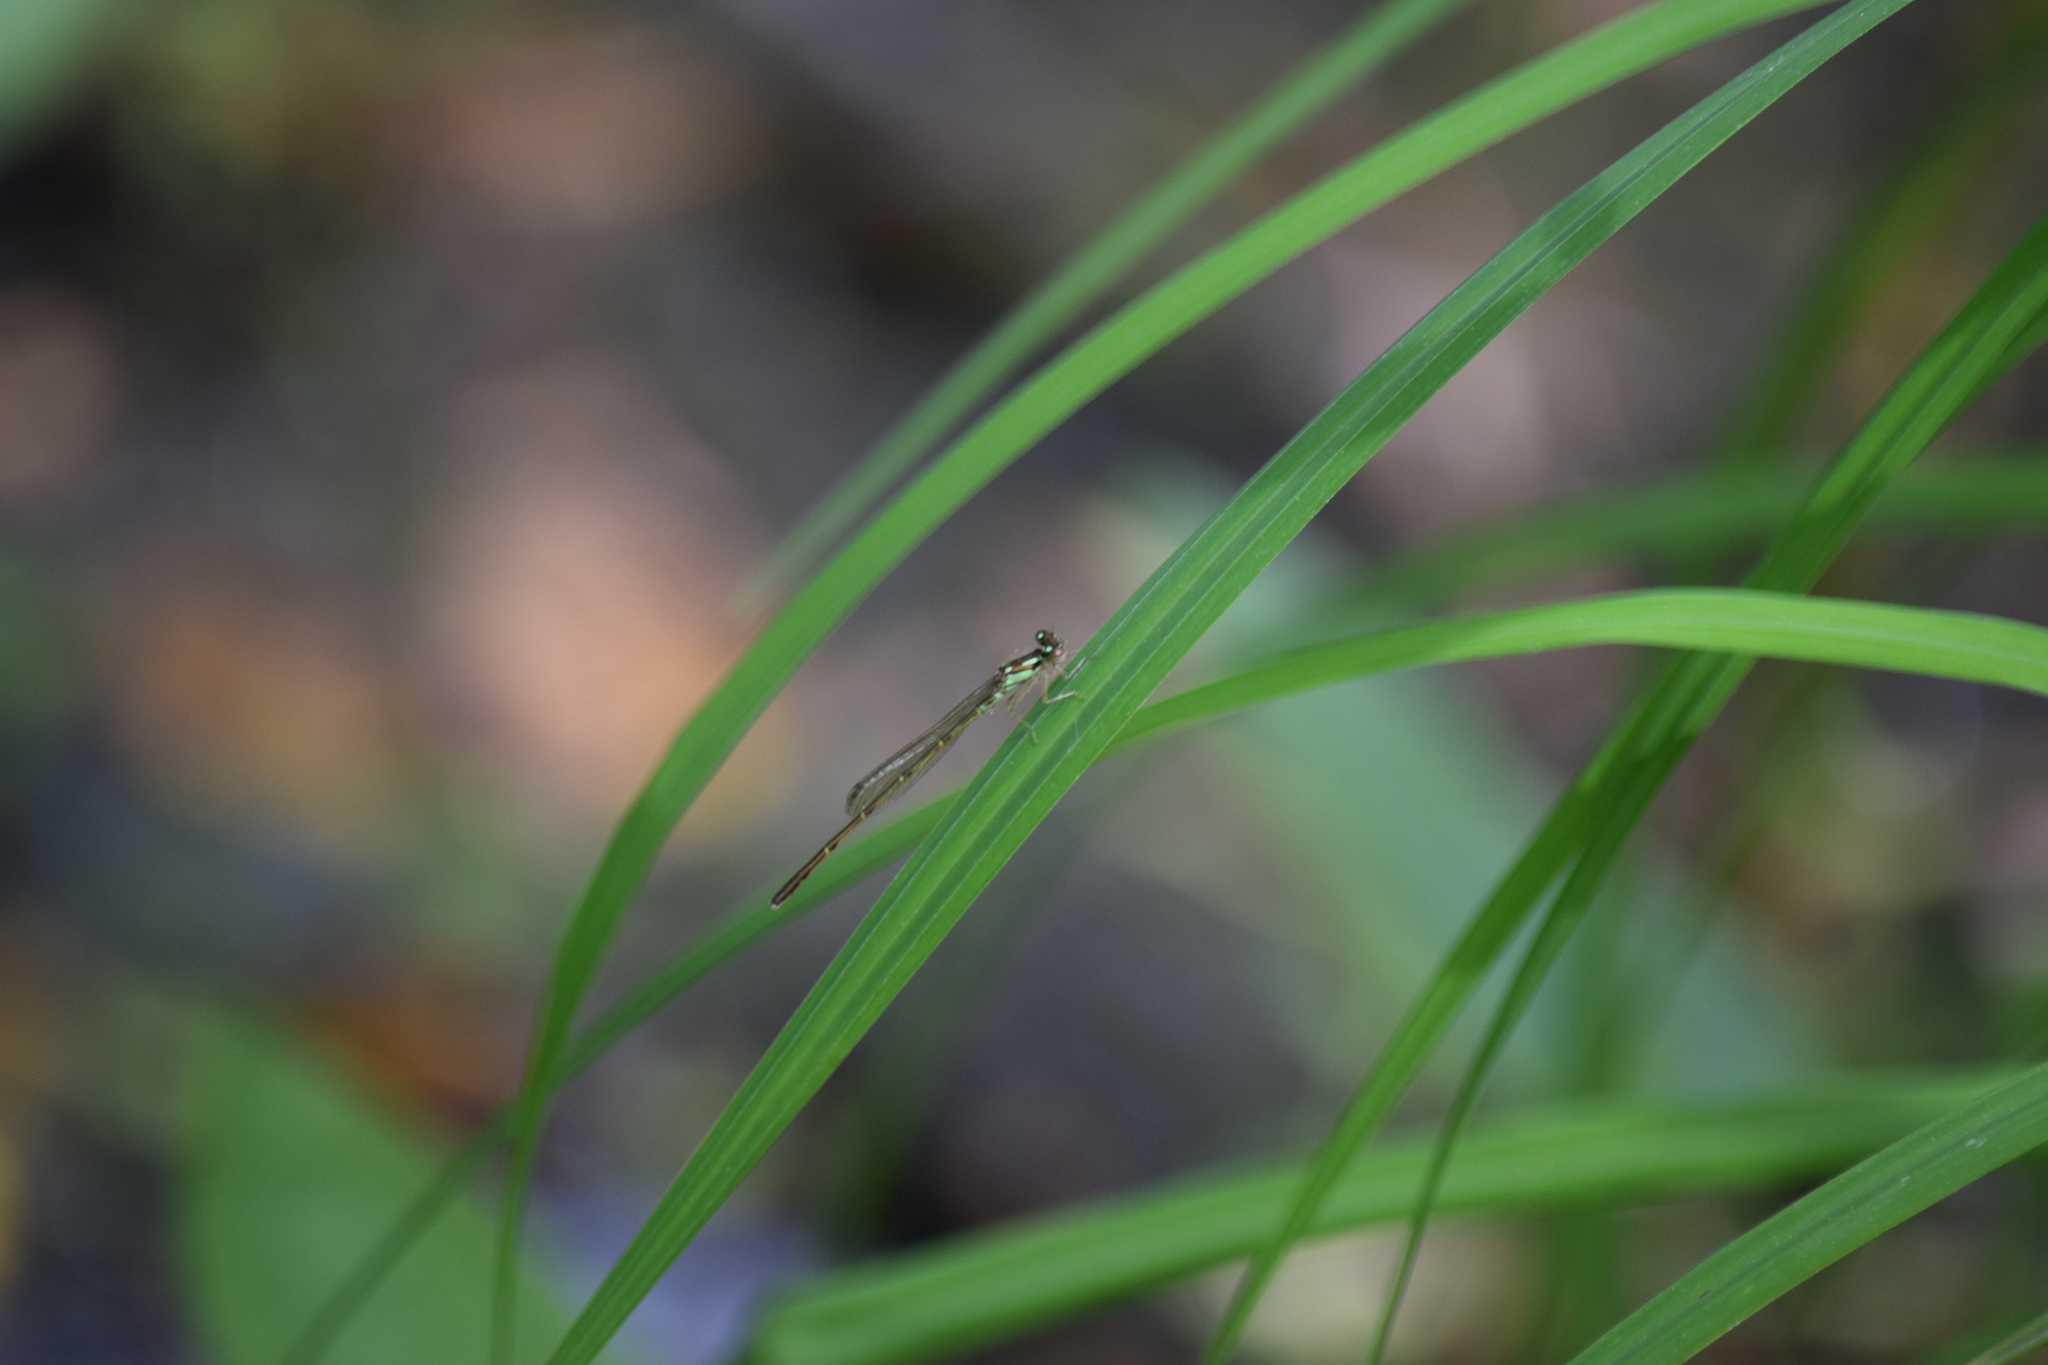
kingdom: Animalia
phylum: Arthropoda
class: Insecta
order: Odonata
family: Coenagrionidae
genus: Ischnura
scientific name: Ischnura posita
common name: Fragile forktail
